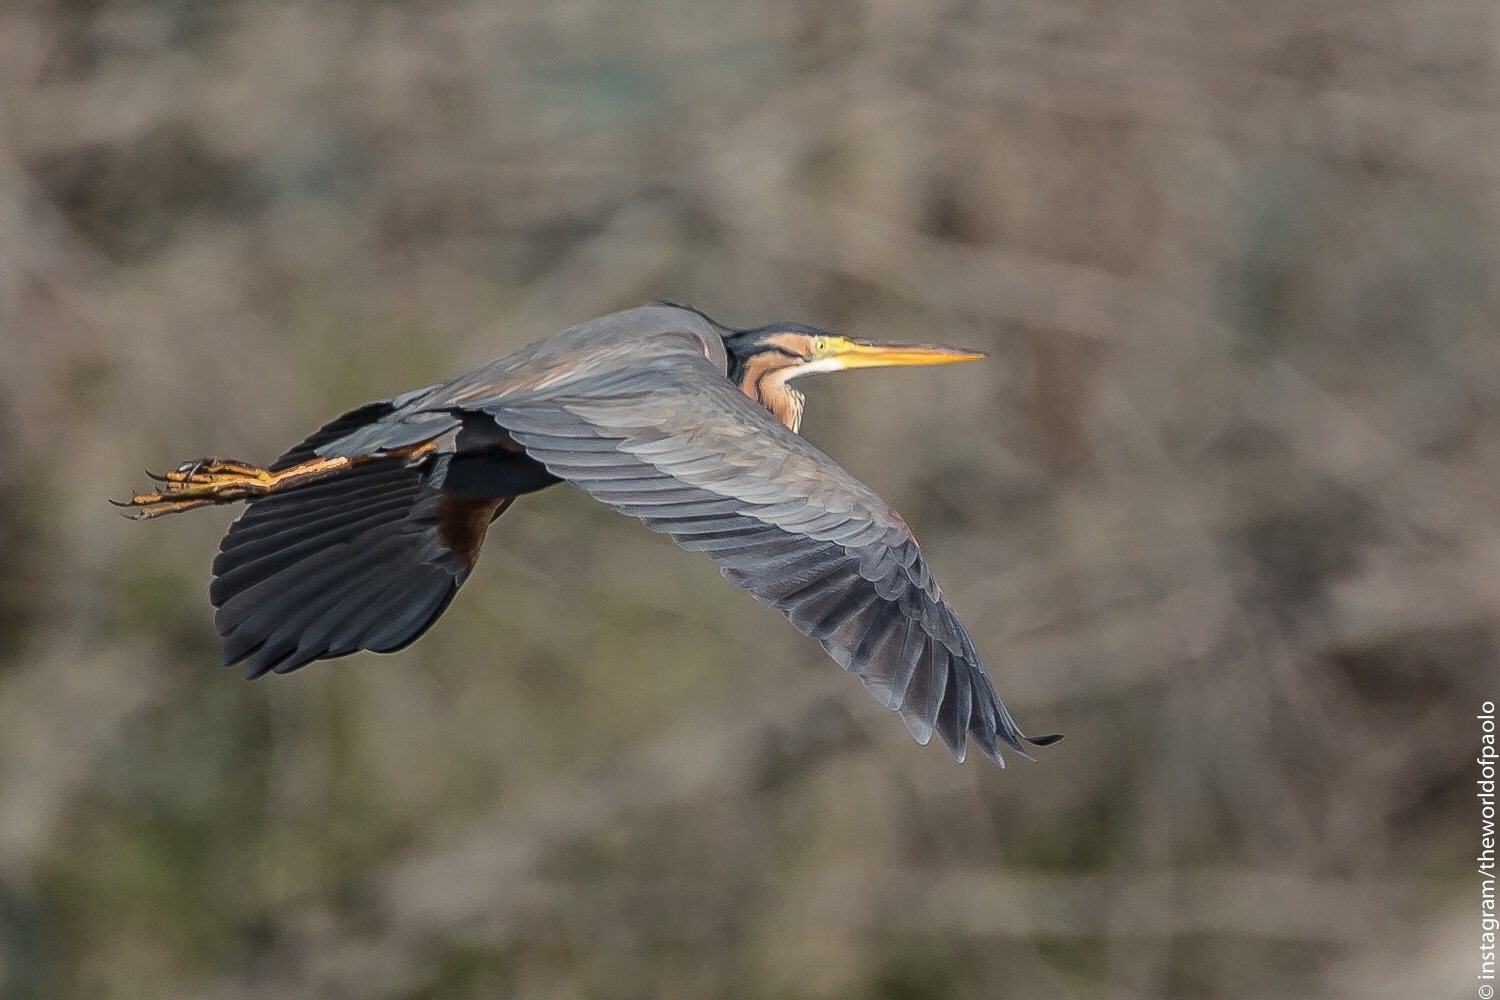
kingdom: Animalia
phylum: Chordata
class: Aves
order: Pelecaniformes
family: Ardeidae
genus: Ardea
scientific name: Ardea purpurea
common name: Purple heron
